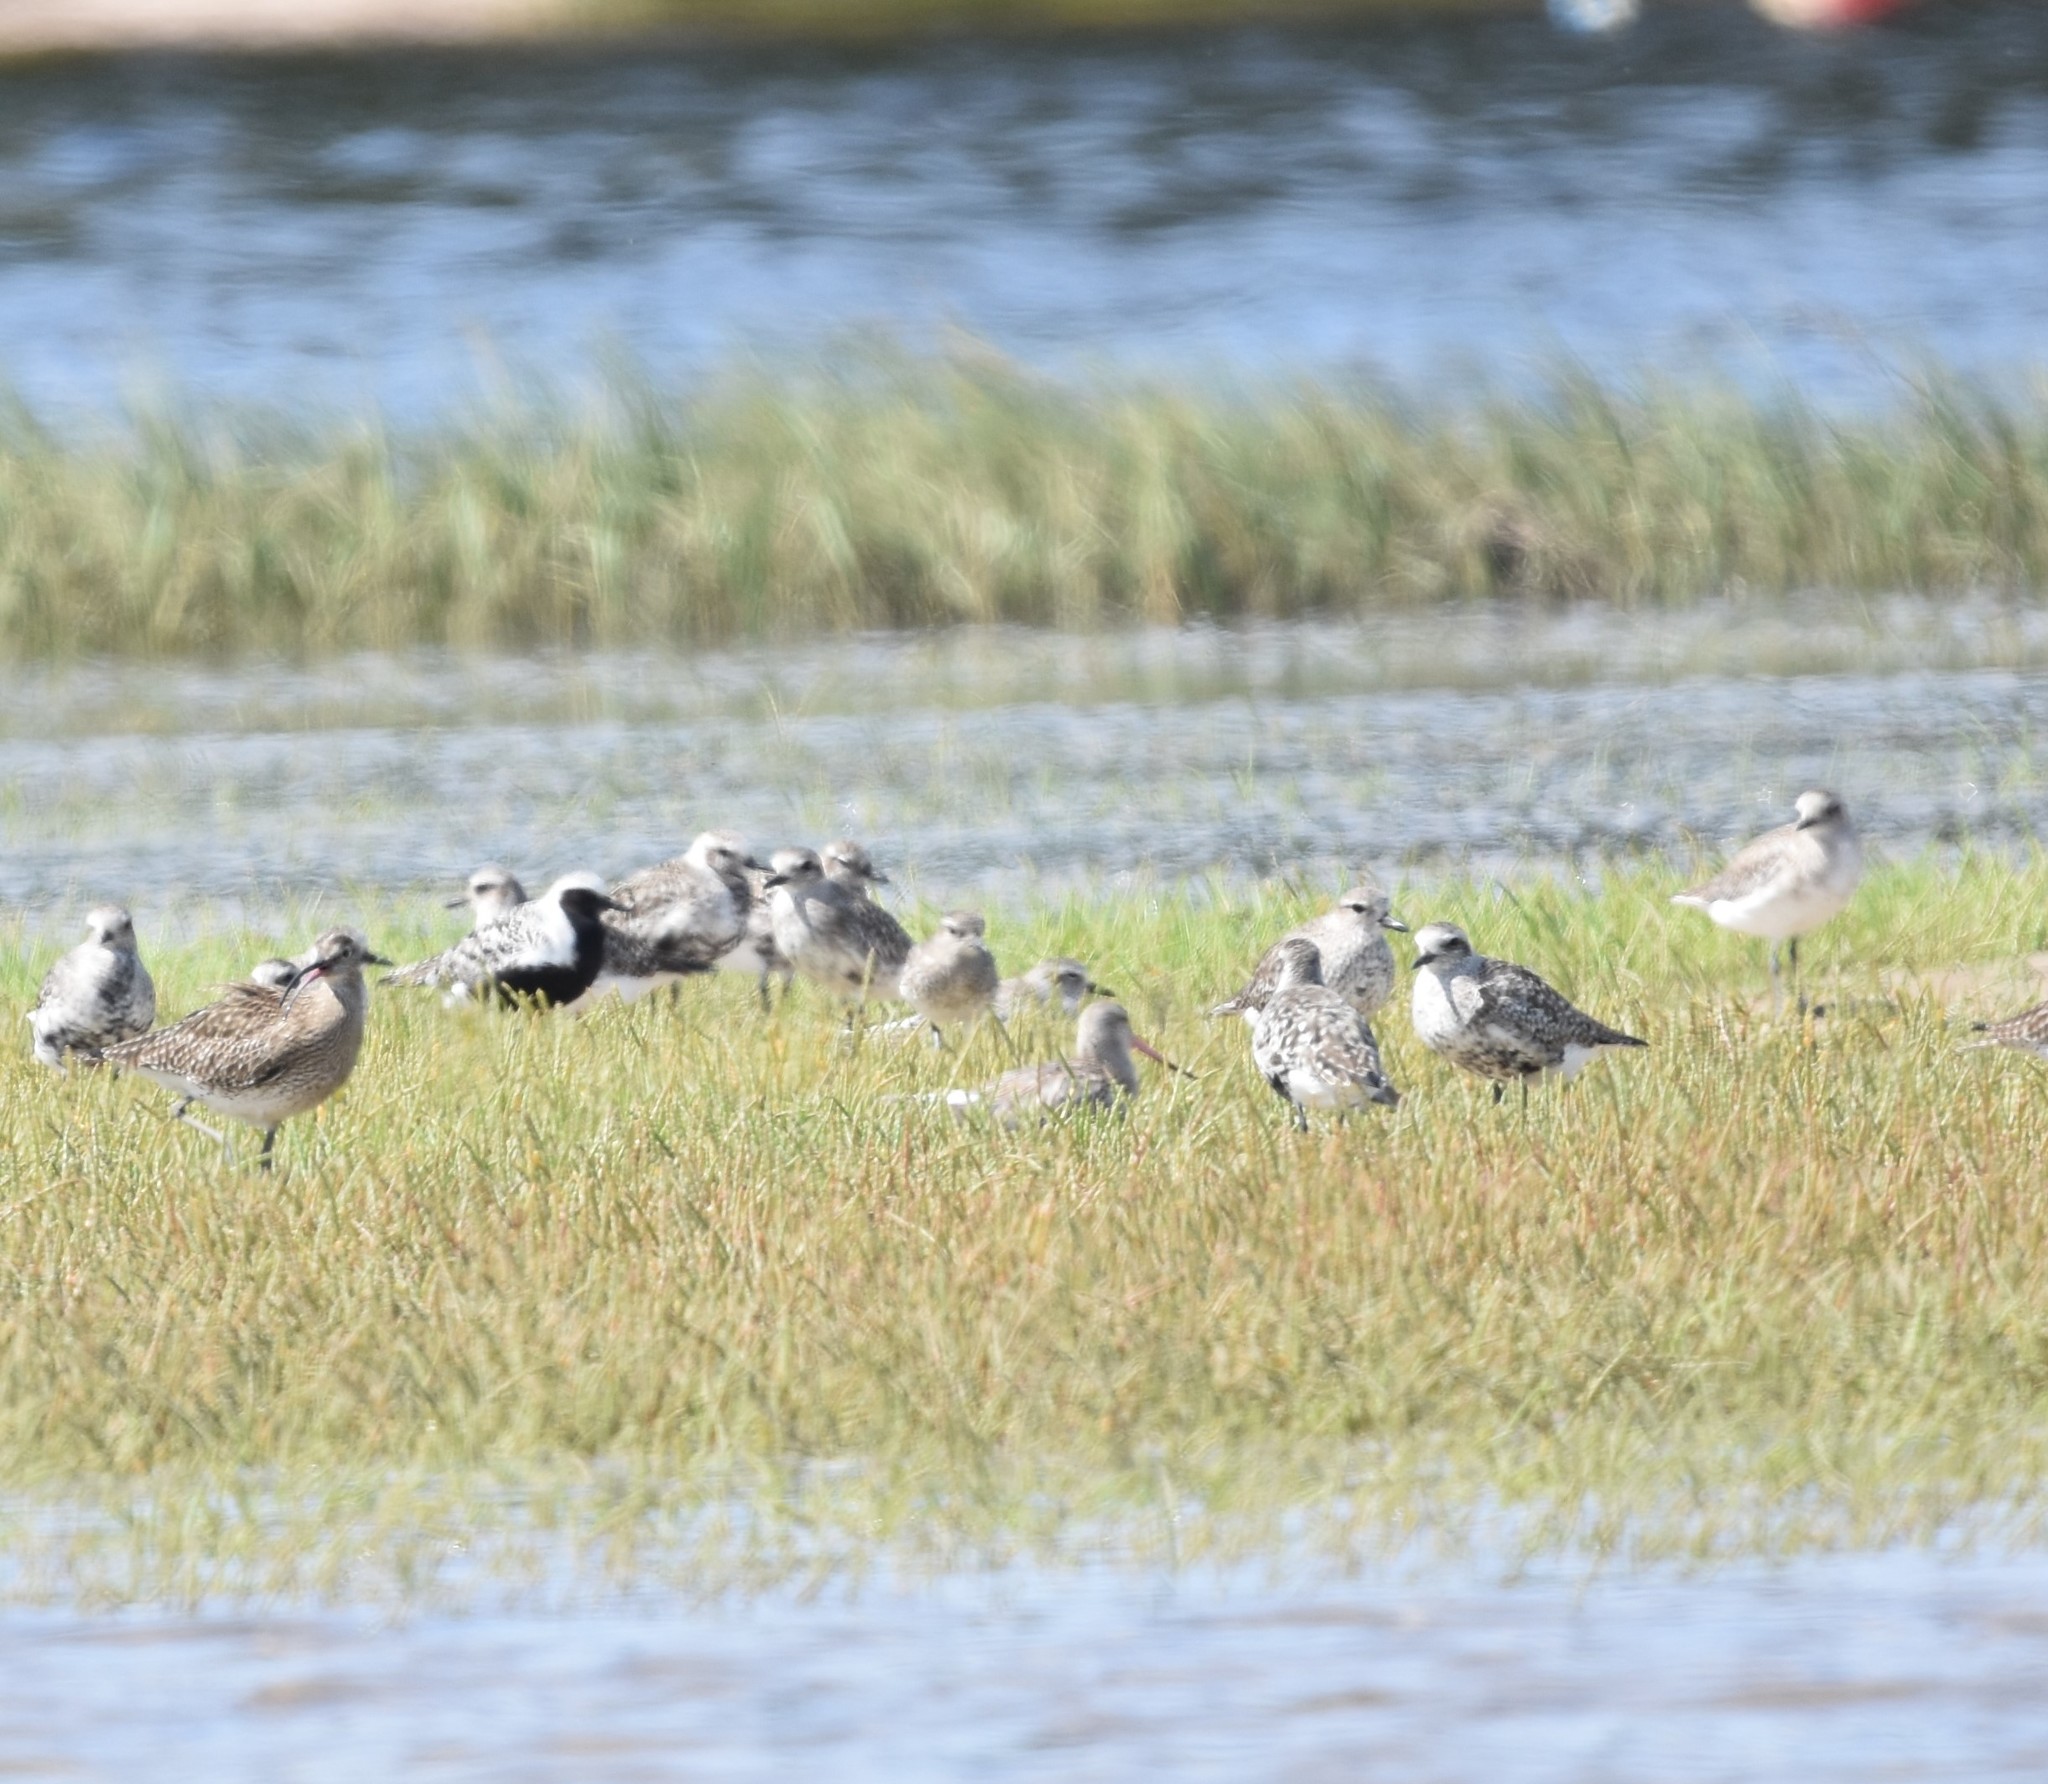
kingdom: Animalia
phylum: Chordata
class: Aves
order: Charadriiformes
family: Charadriidae
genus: Pluvialis
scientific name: Pluvialis squatarola
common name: Grey plover
